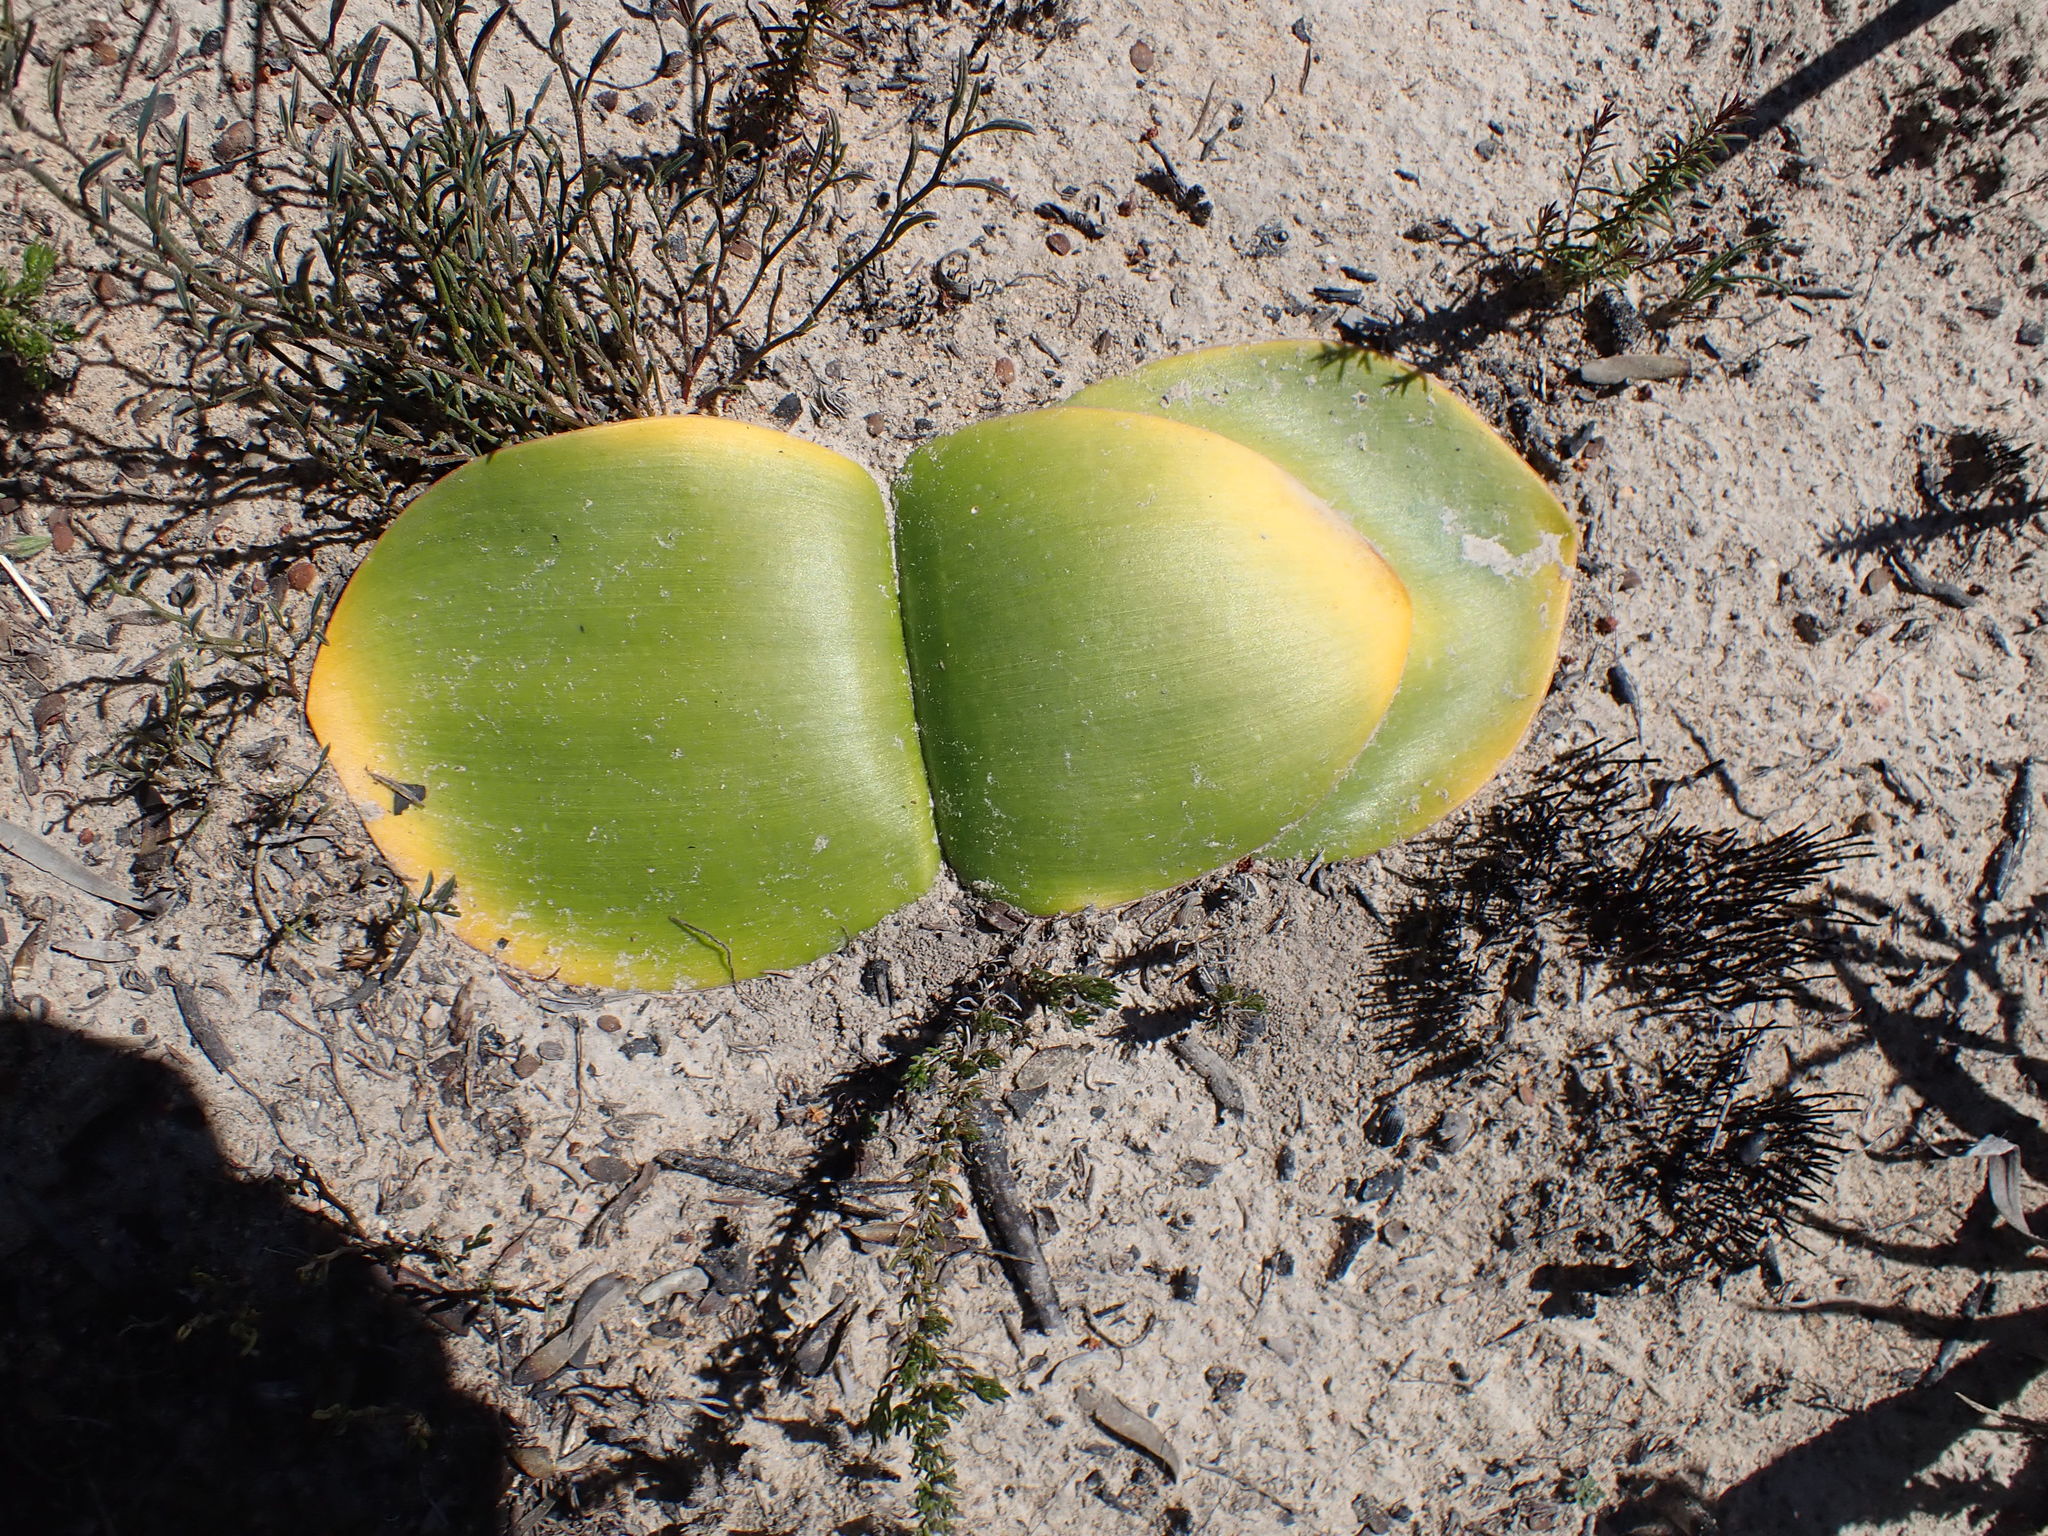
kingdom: Plantae
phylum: Tracheophyta
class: Liliopsida
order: Asparagales
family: Amaryllidaceae
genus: Haemanthus
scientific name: Haemanthus sanguineus
